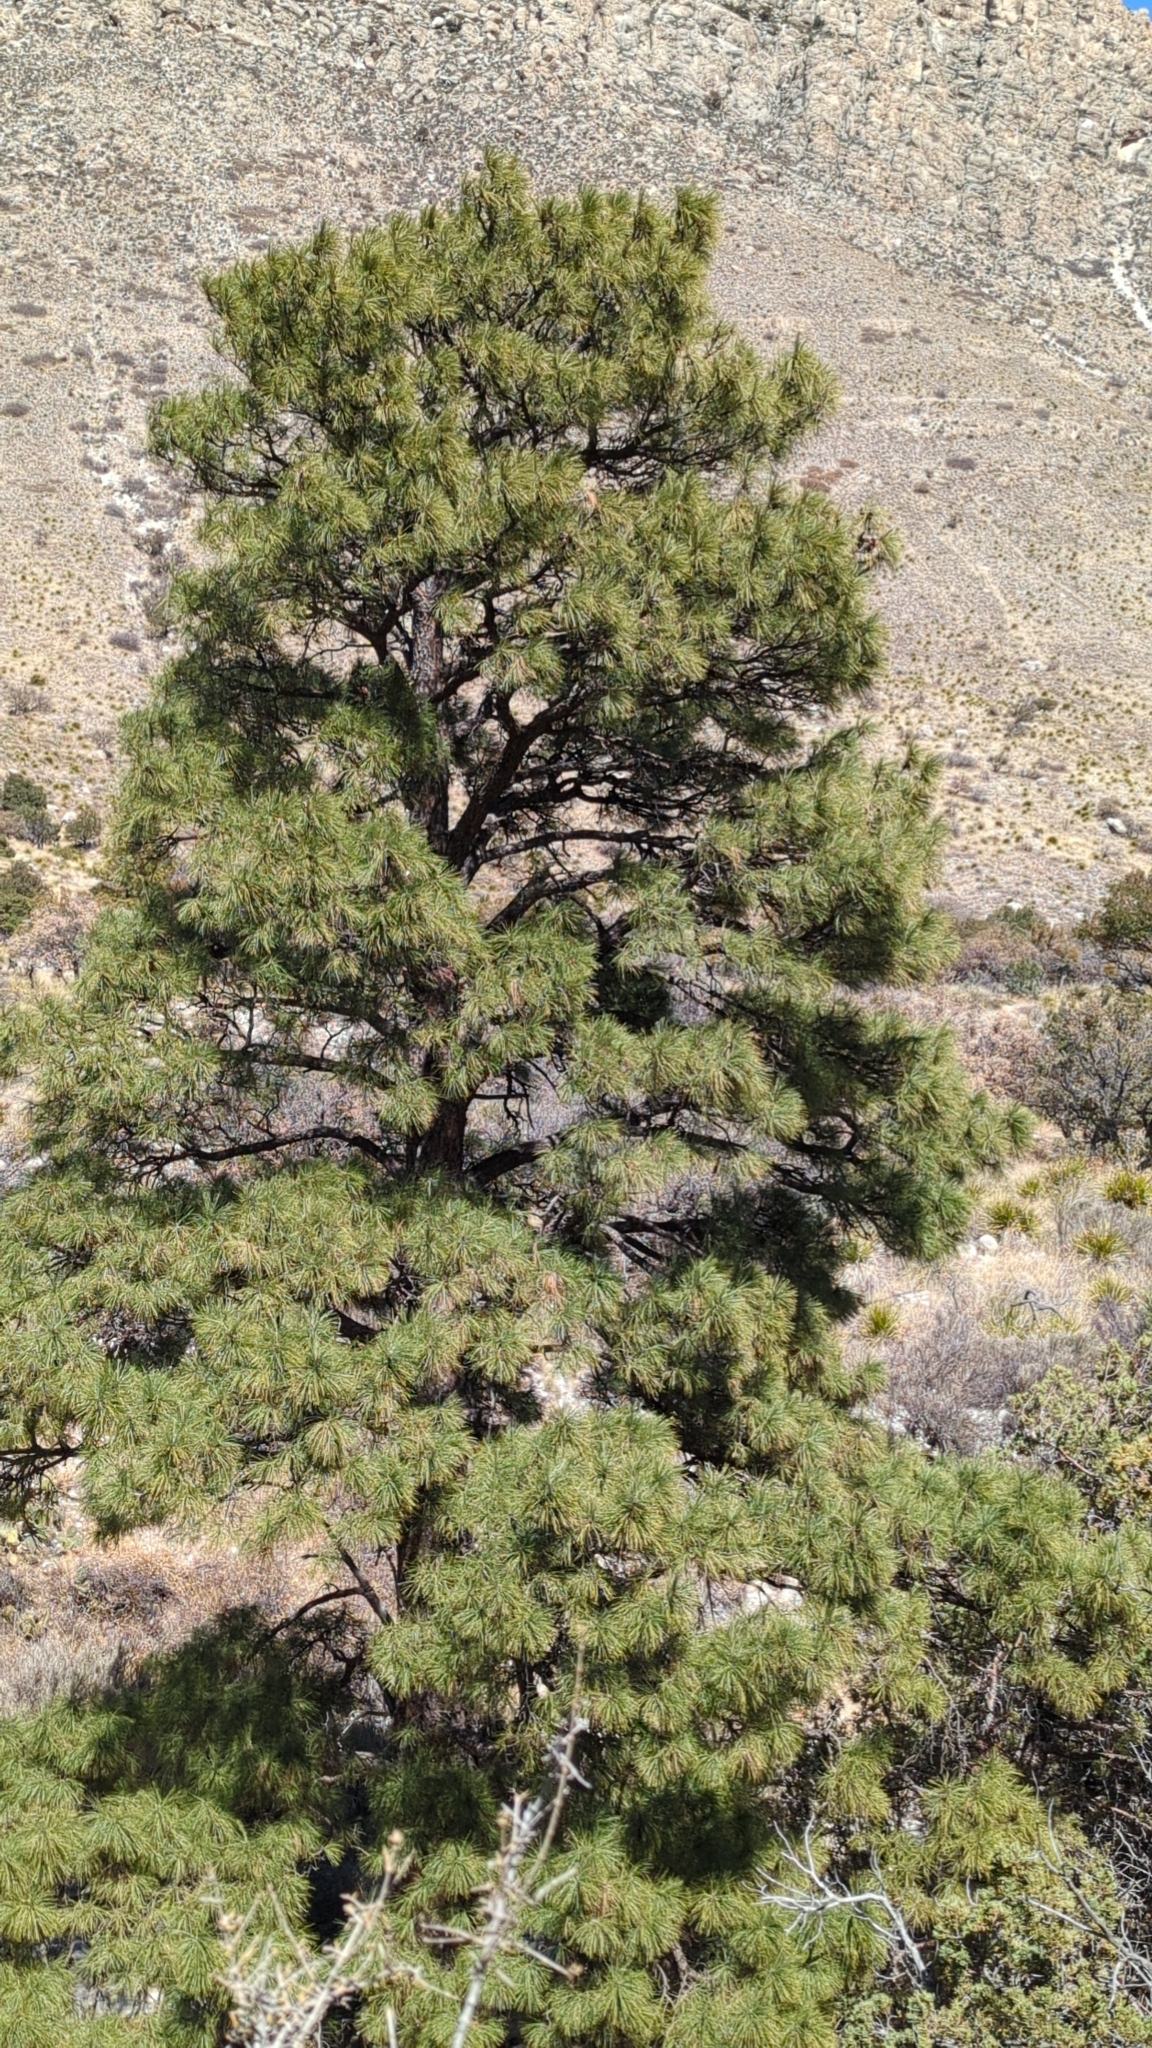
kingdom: Plantae
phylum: Tracheophyta
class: Pinopsida
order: Pinales
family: Pinaceae
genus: Pinus
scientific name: Pinus ponderosa
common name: Western yellow-pine
